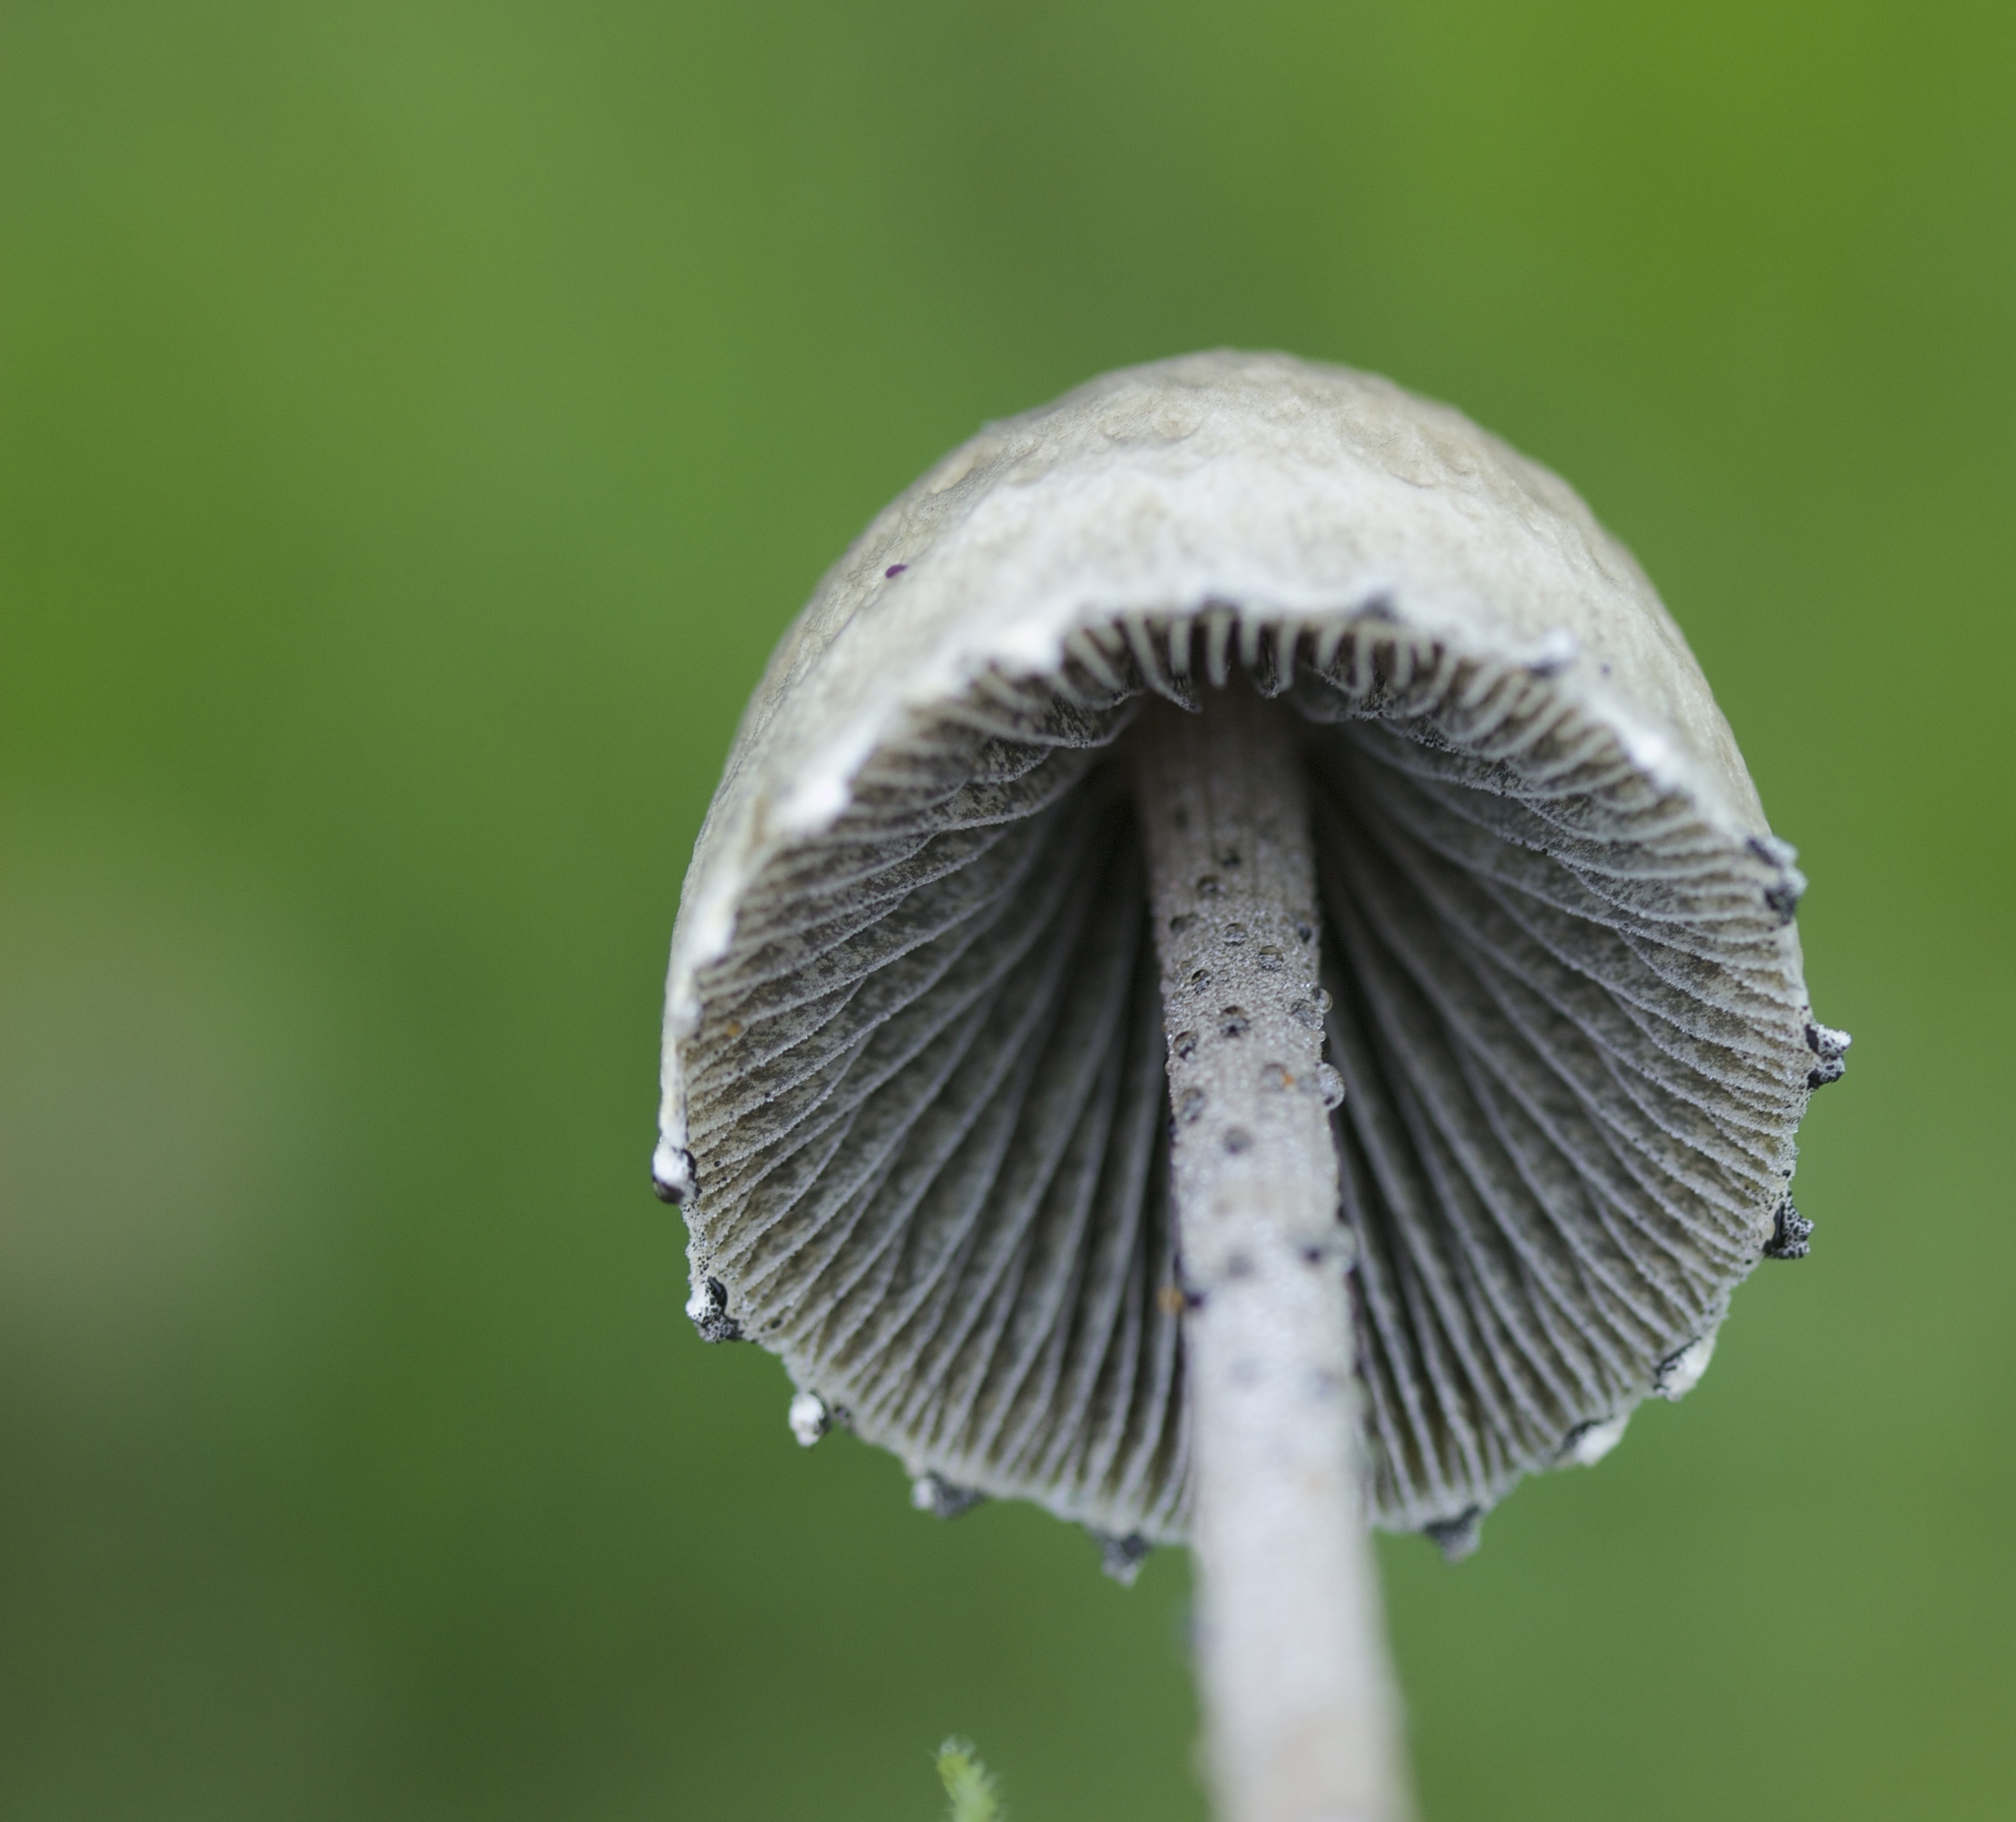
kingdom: Fungi
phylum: Basidiomycota
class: Agaricomycetes
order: Agaricales
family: Bolbitiaceae
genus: Panaeolus
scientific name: Panaeolus papilionaceus
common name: Petticoat mottlegill
